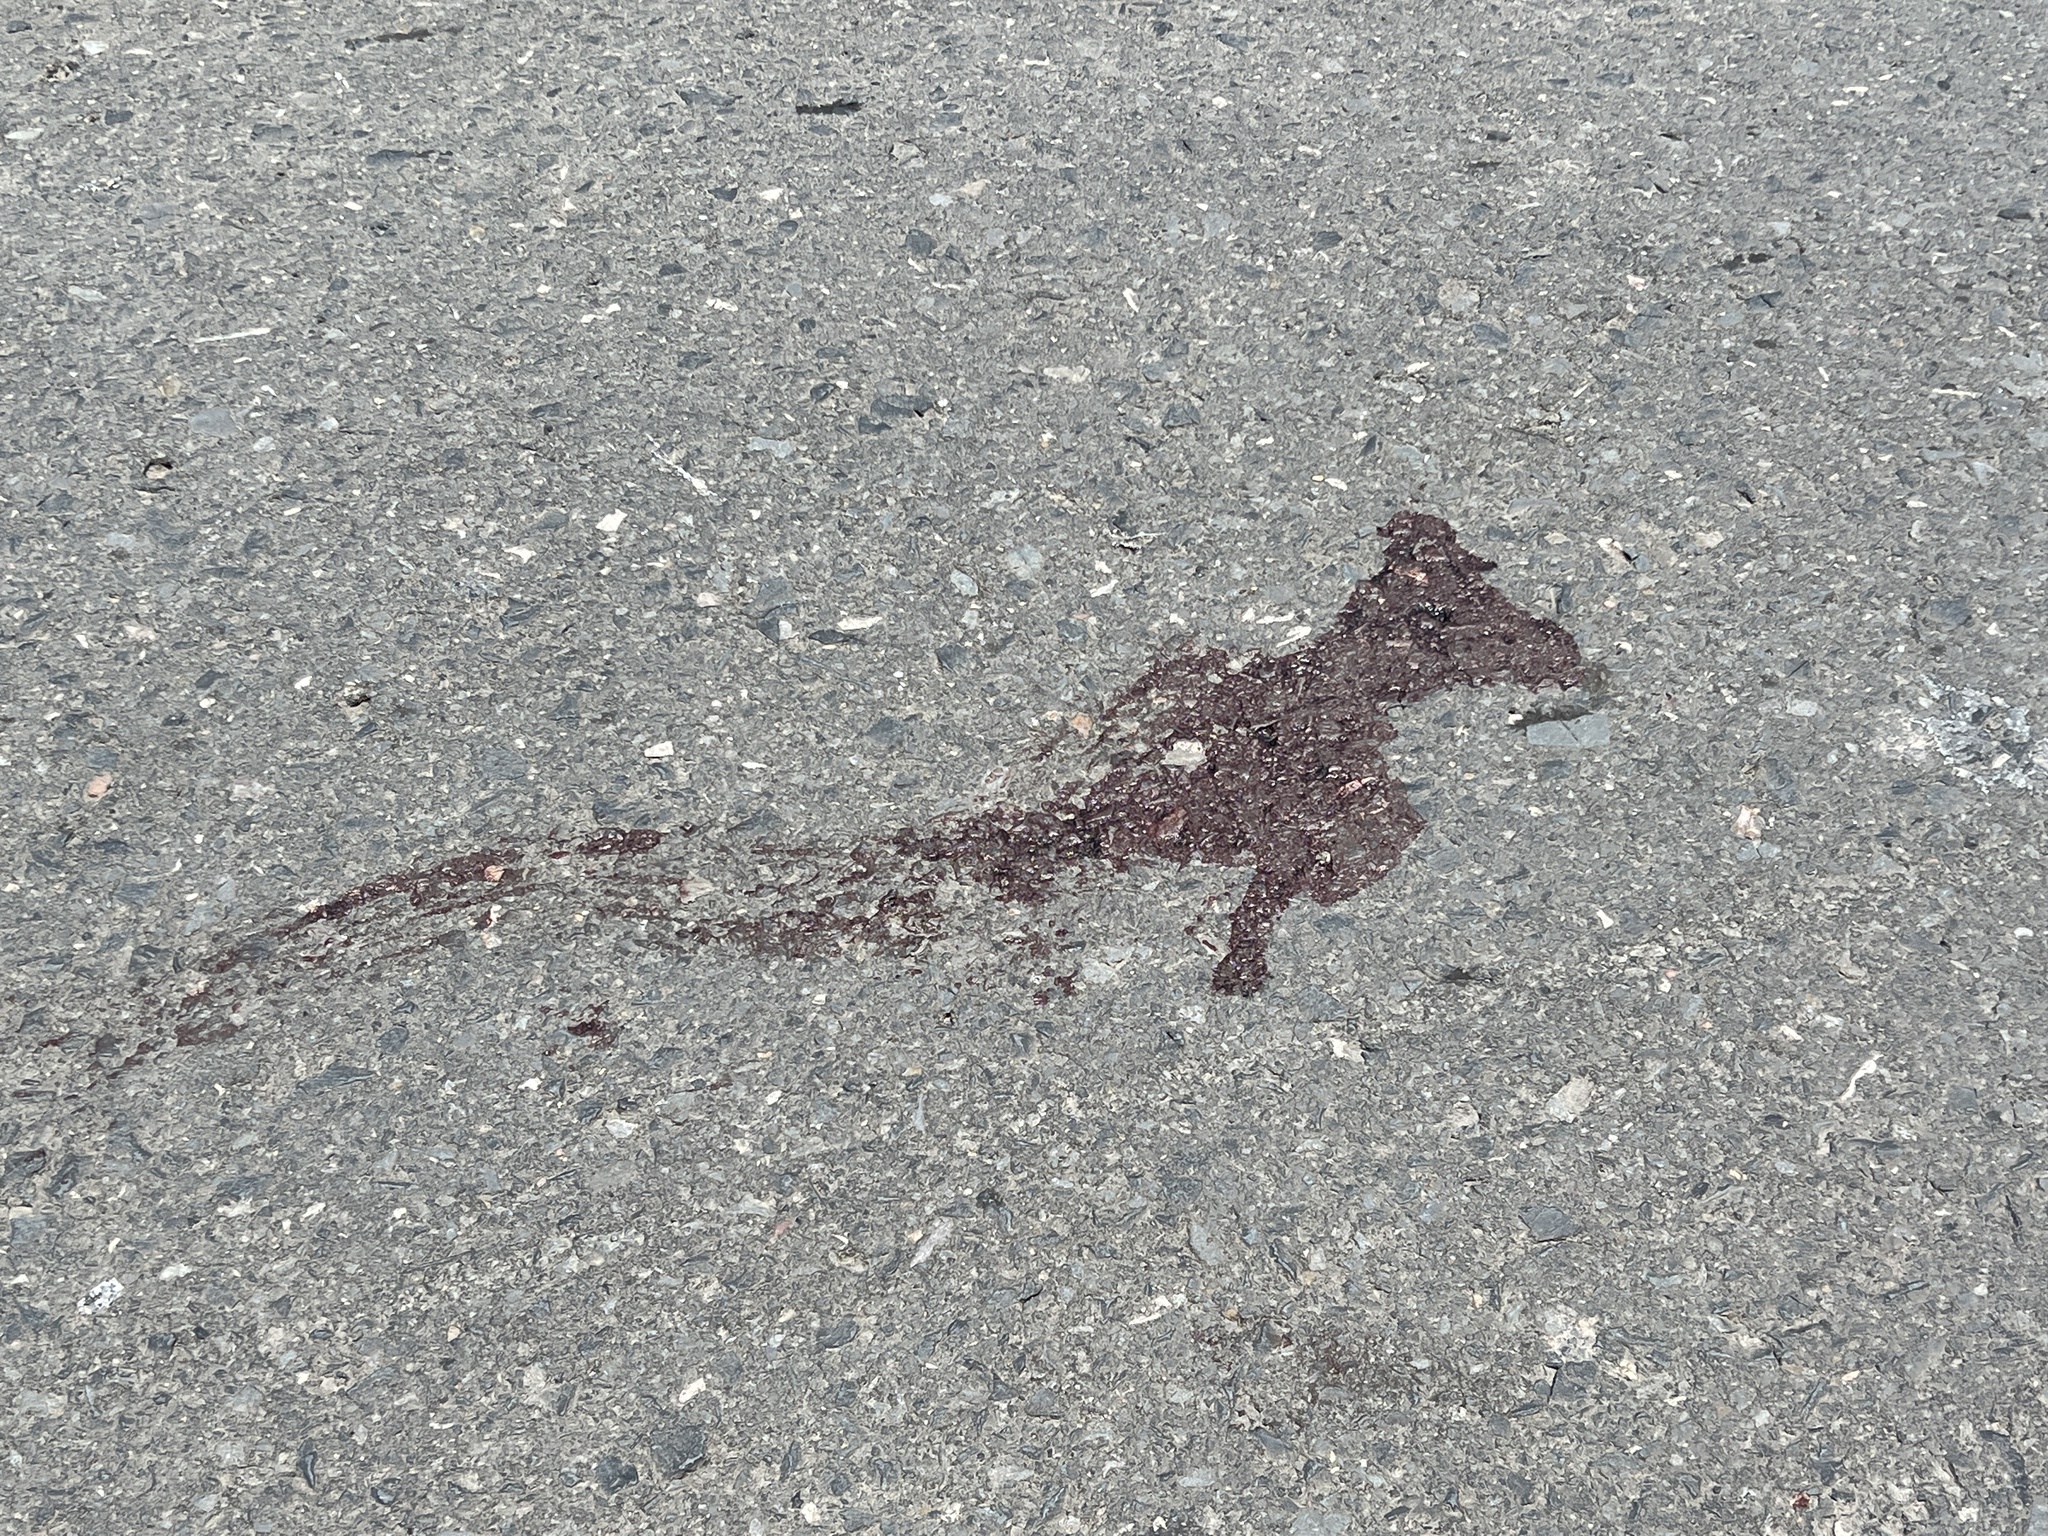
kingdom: Animalia
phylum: Chordata
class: Squamata
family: Teiidae
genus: Salvator
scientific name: Salvator merianae
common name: Argentine black and white tegu
